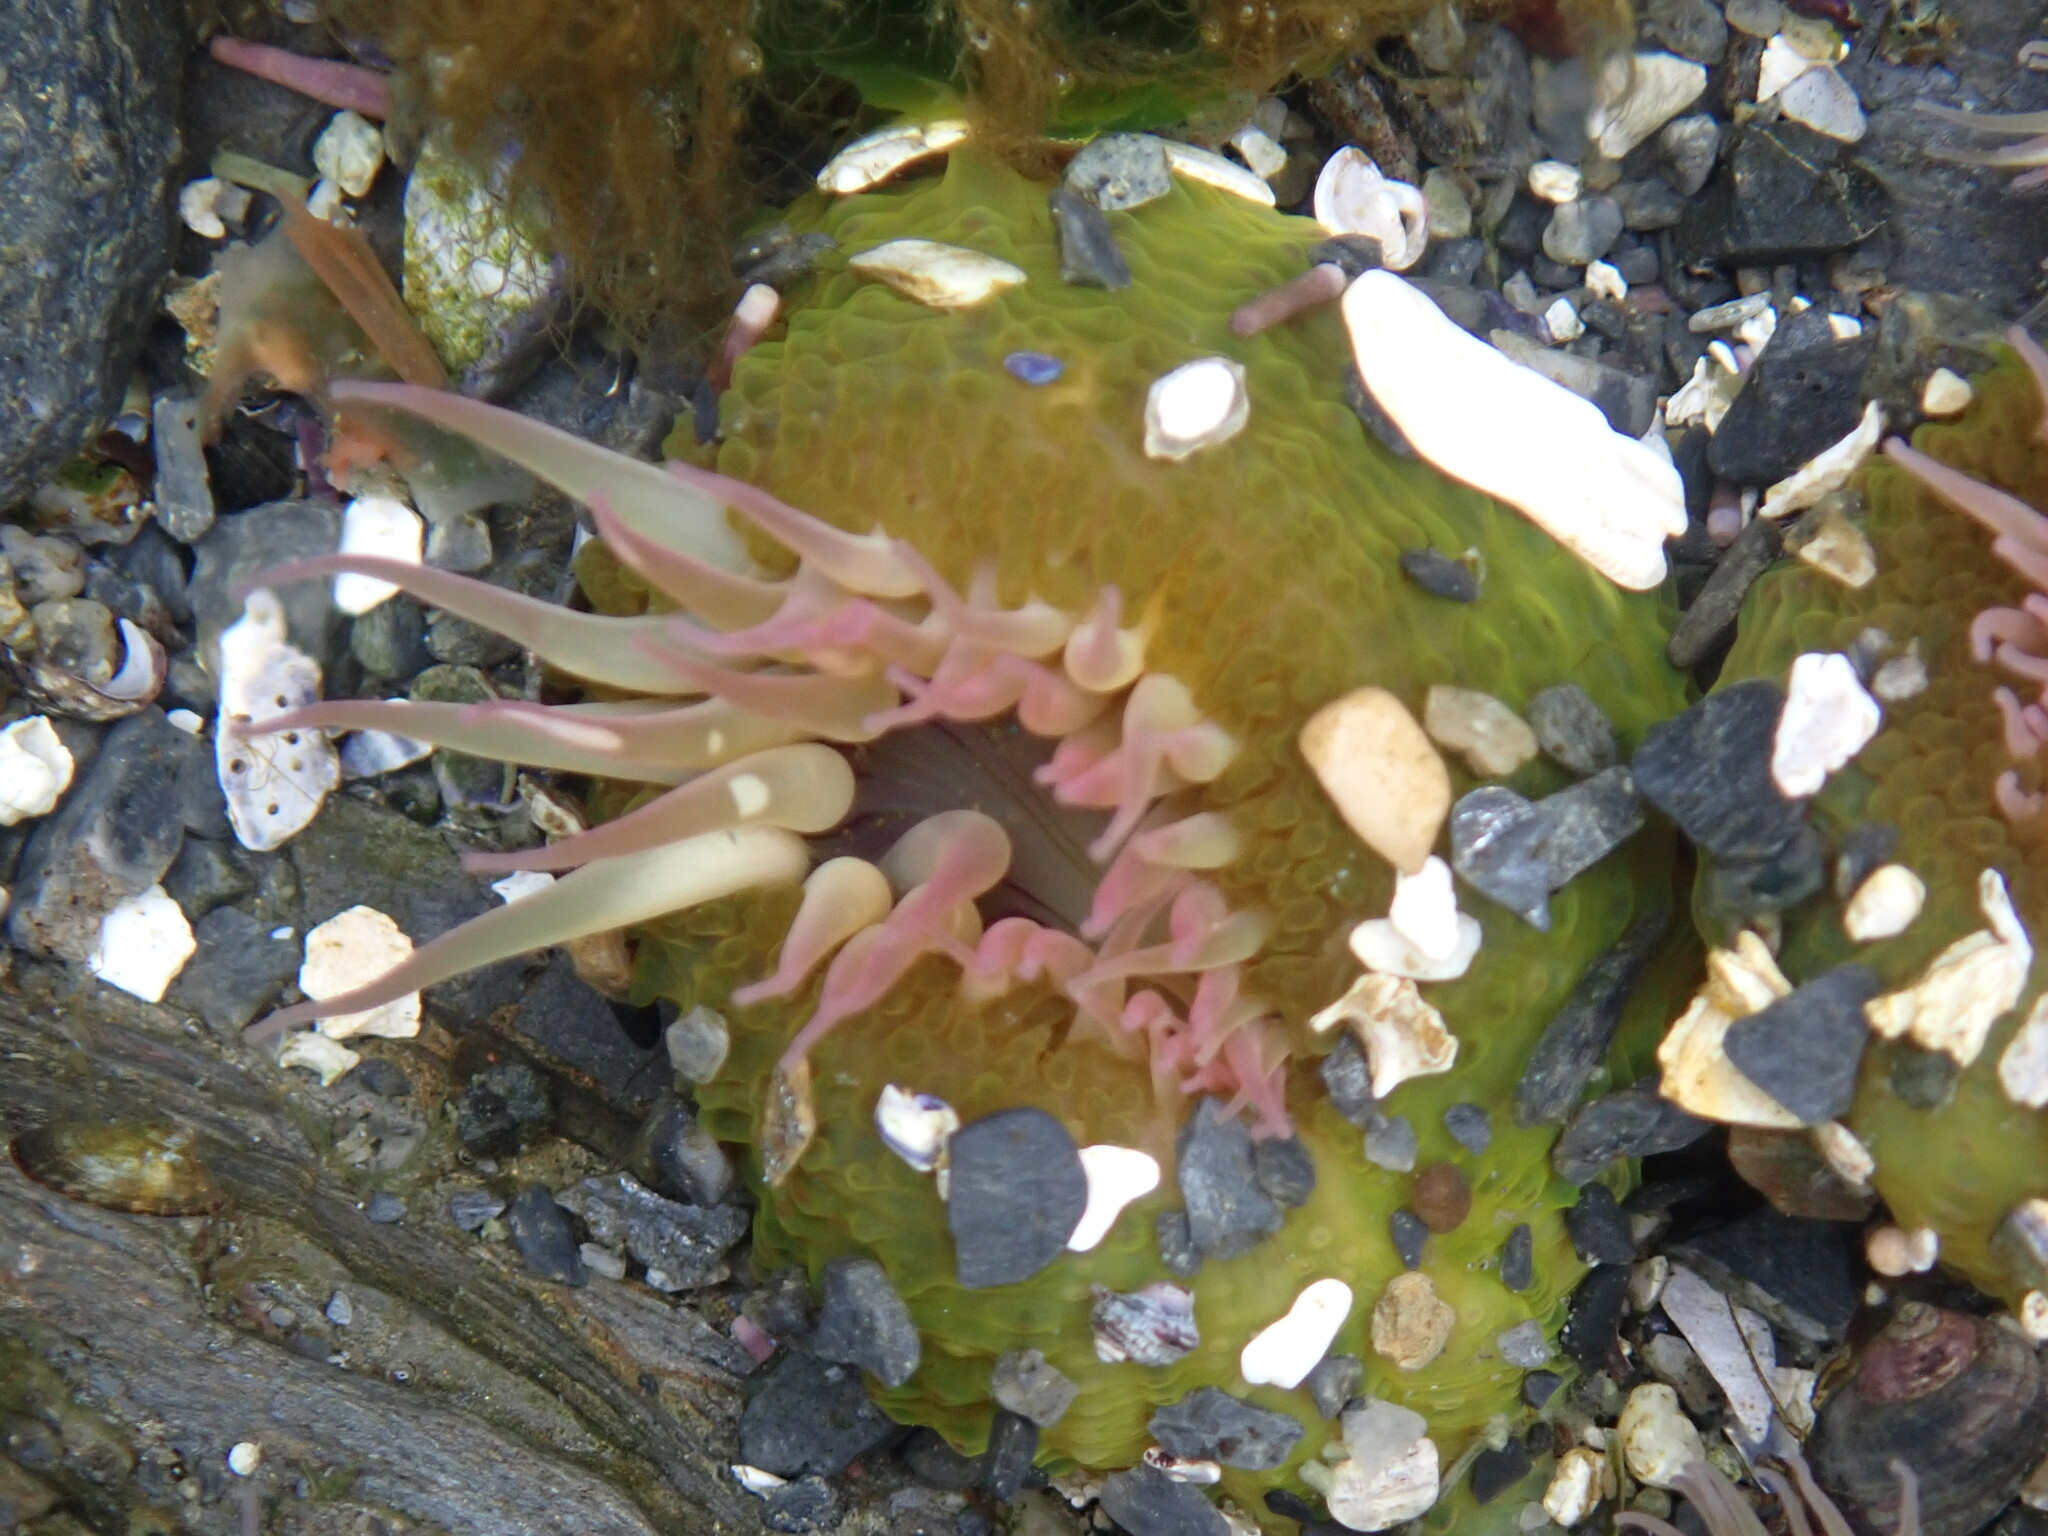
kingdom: Animalia
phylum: Cnidaria
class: Anthozoa
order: Actiniaria
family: Actiniidae
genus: Anthopleura
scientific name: Anthopleura elegantissima
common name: Clonal anemone
